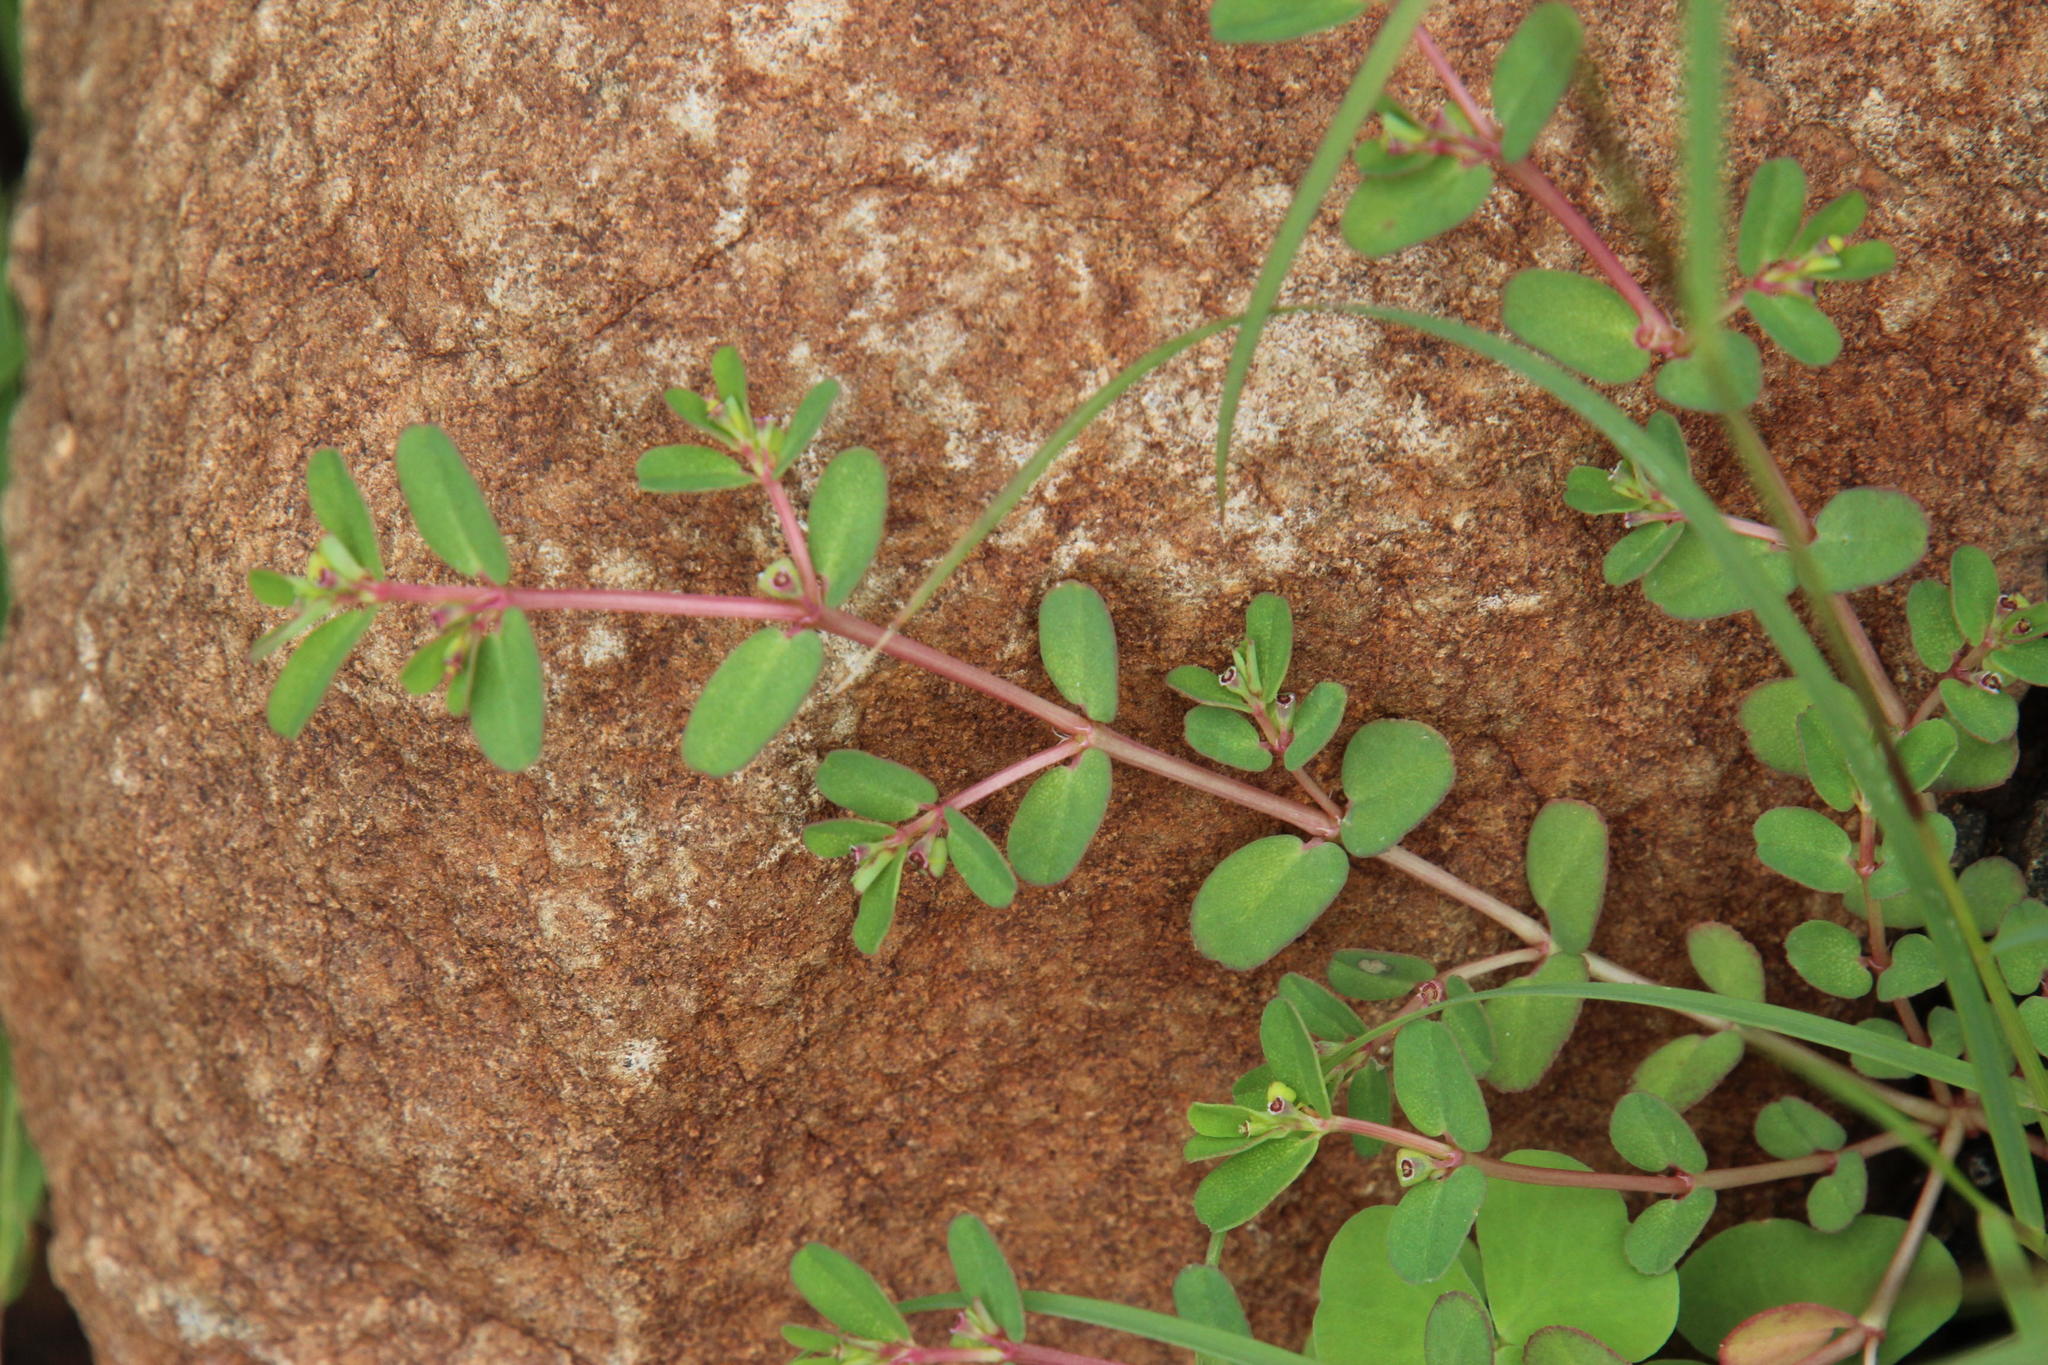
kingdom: Plantae
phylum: Tracheophyta
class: Magnoliopsida
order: Malpighiales
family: Euphorbiaceae
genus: Euphorbia
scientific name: Euphorbia inaequilatera
